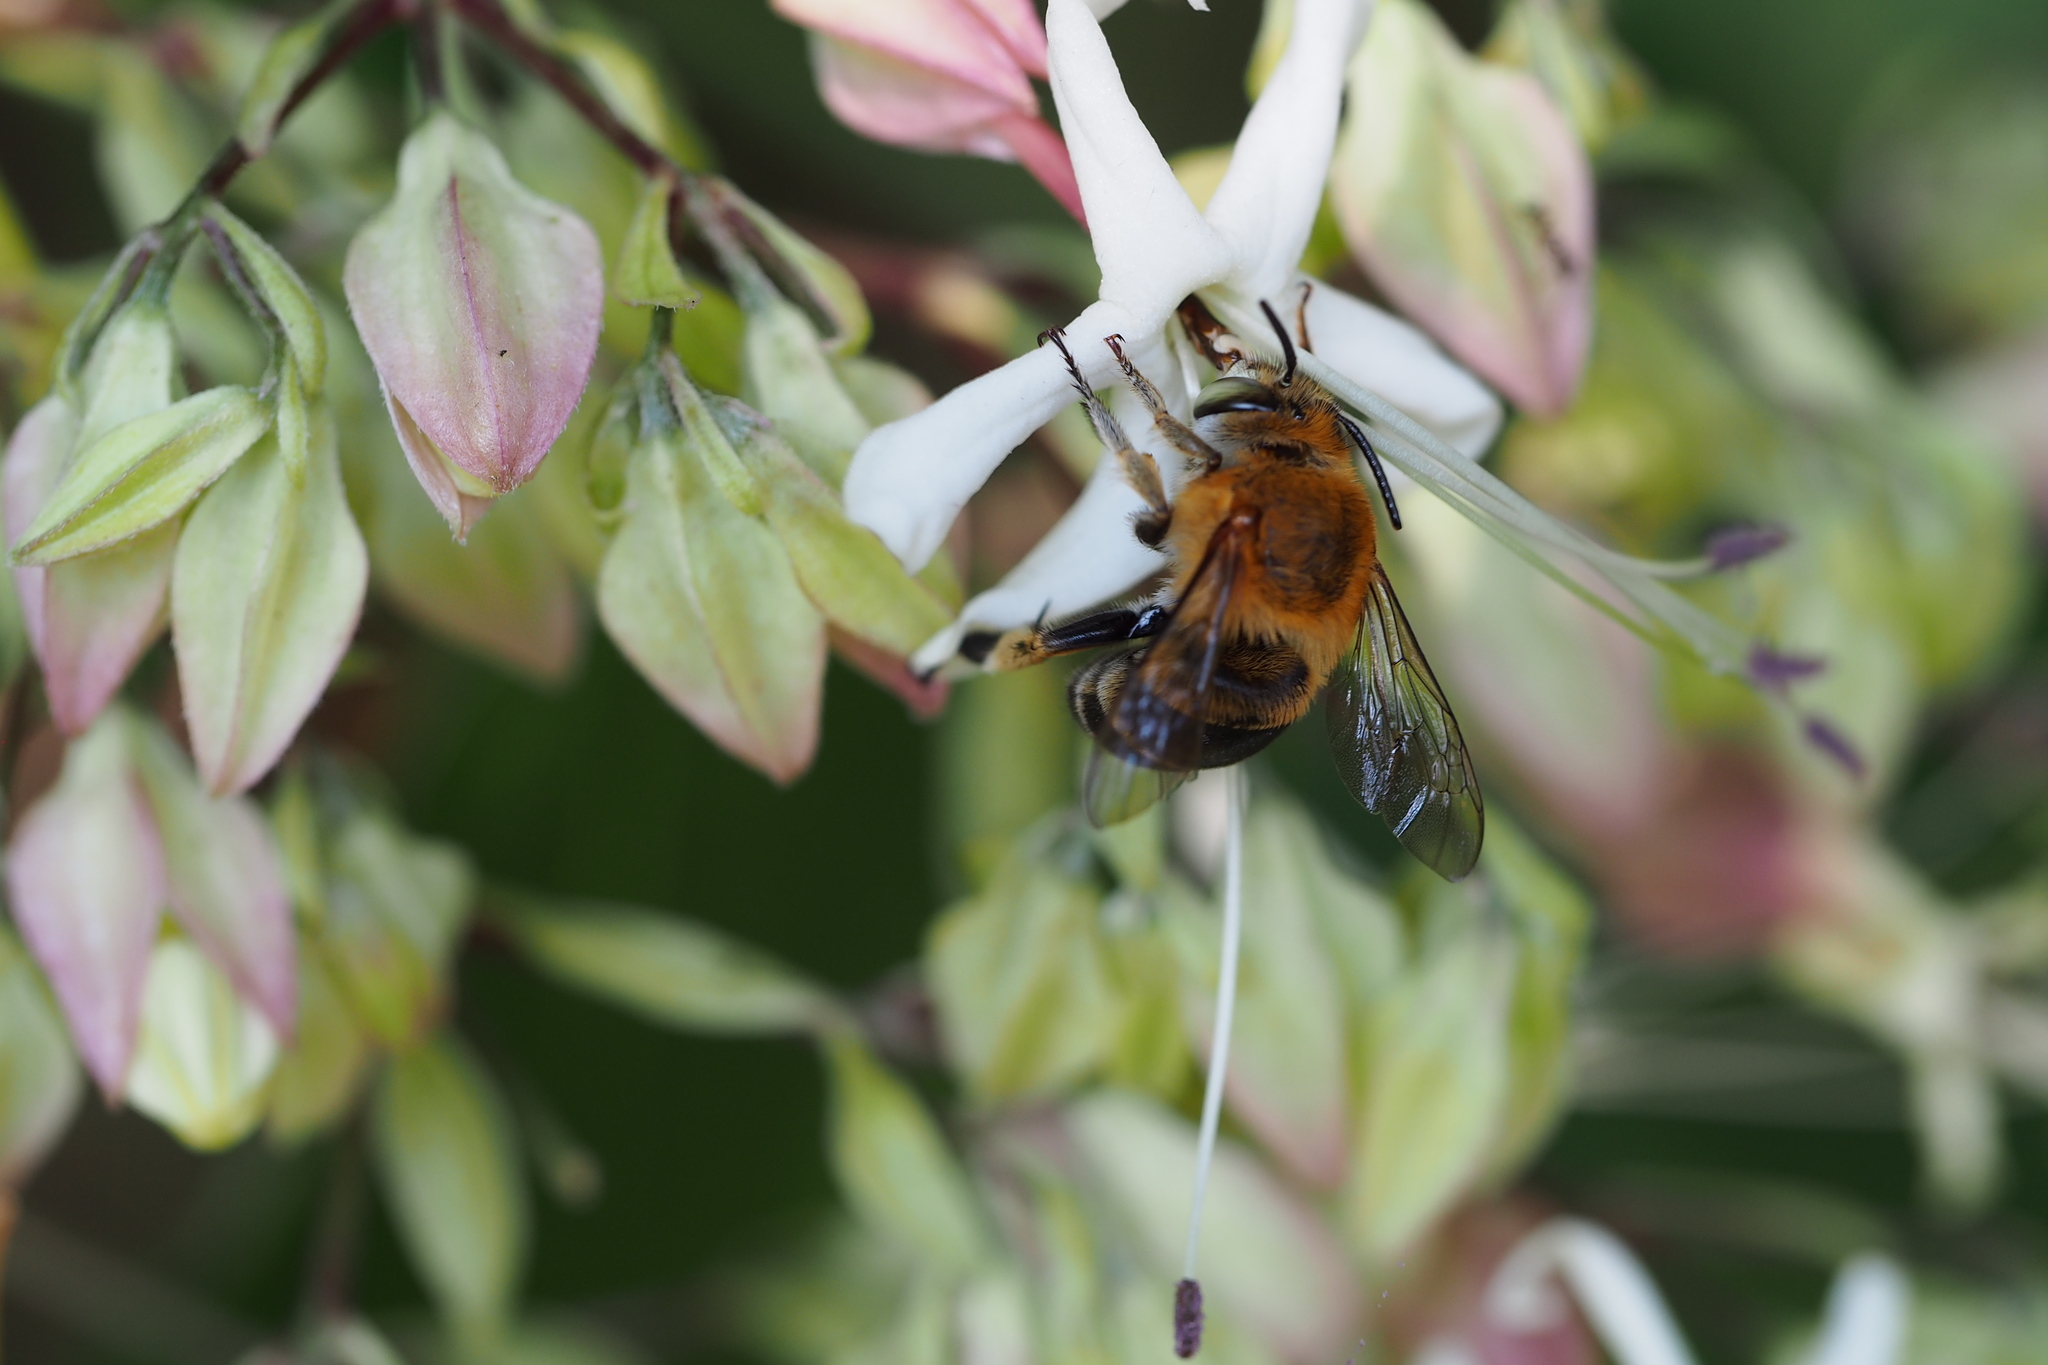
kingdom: Animalia
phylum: Arthropoda
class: Insecta
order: Hymenoptera
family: Apidae
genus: Amegilla
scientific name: Amegilla florea
